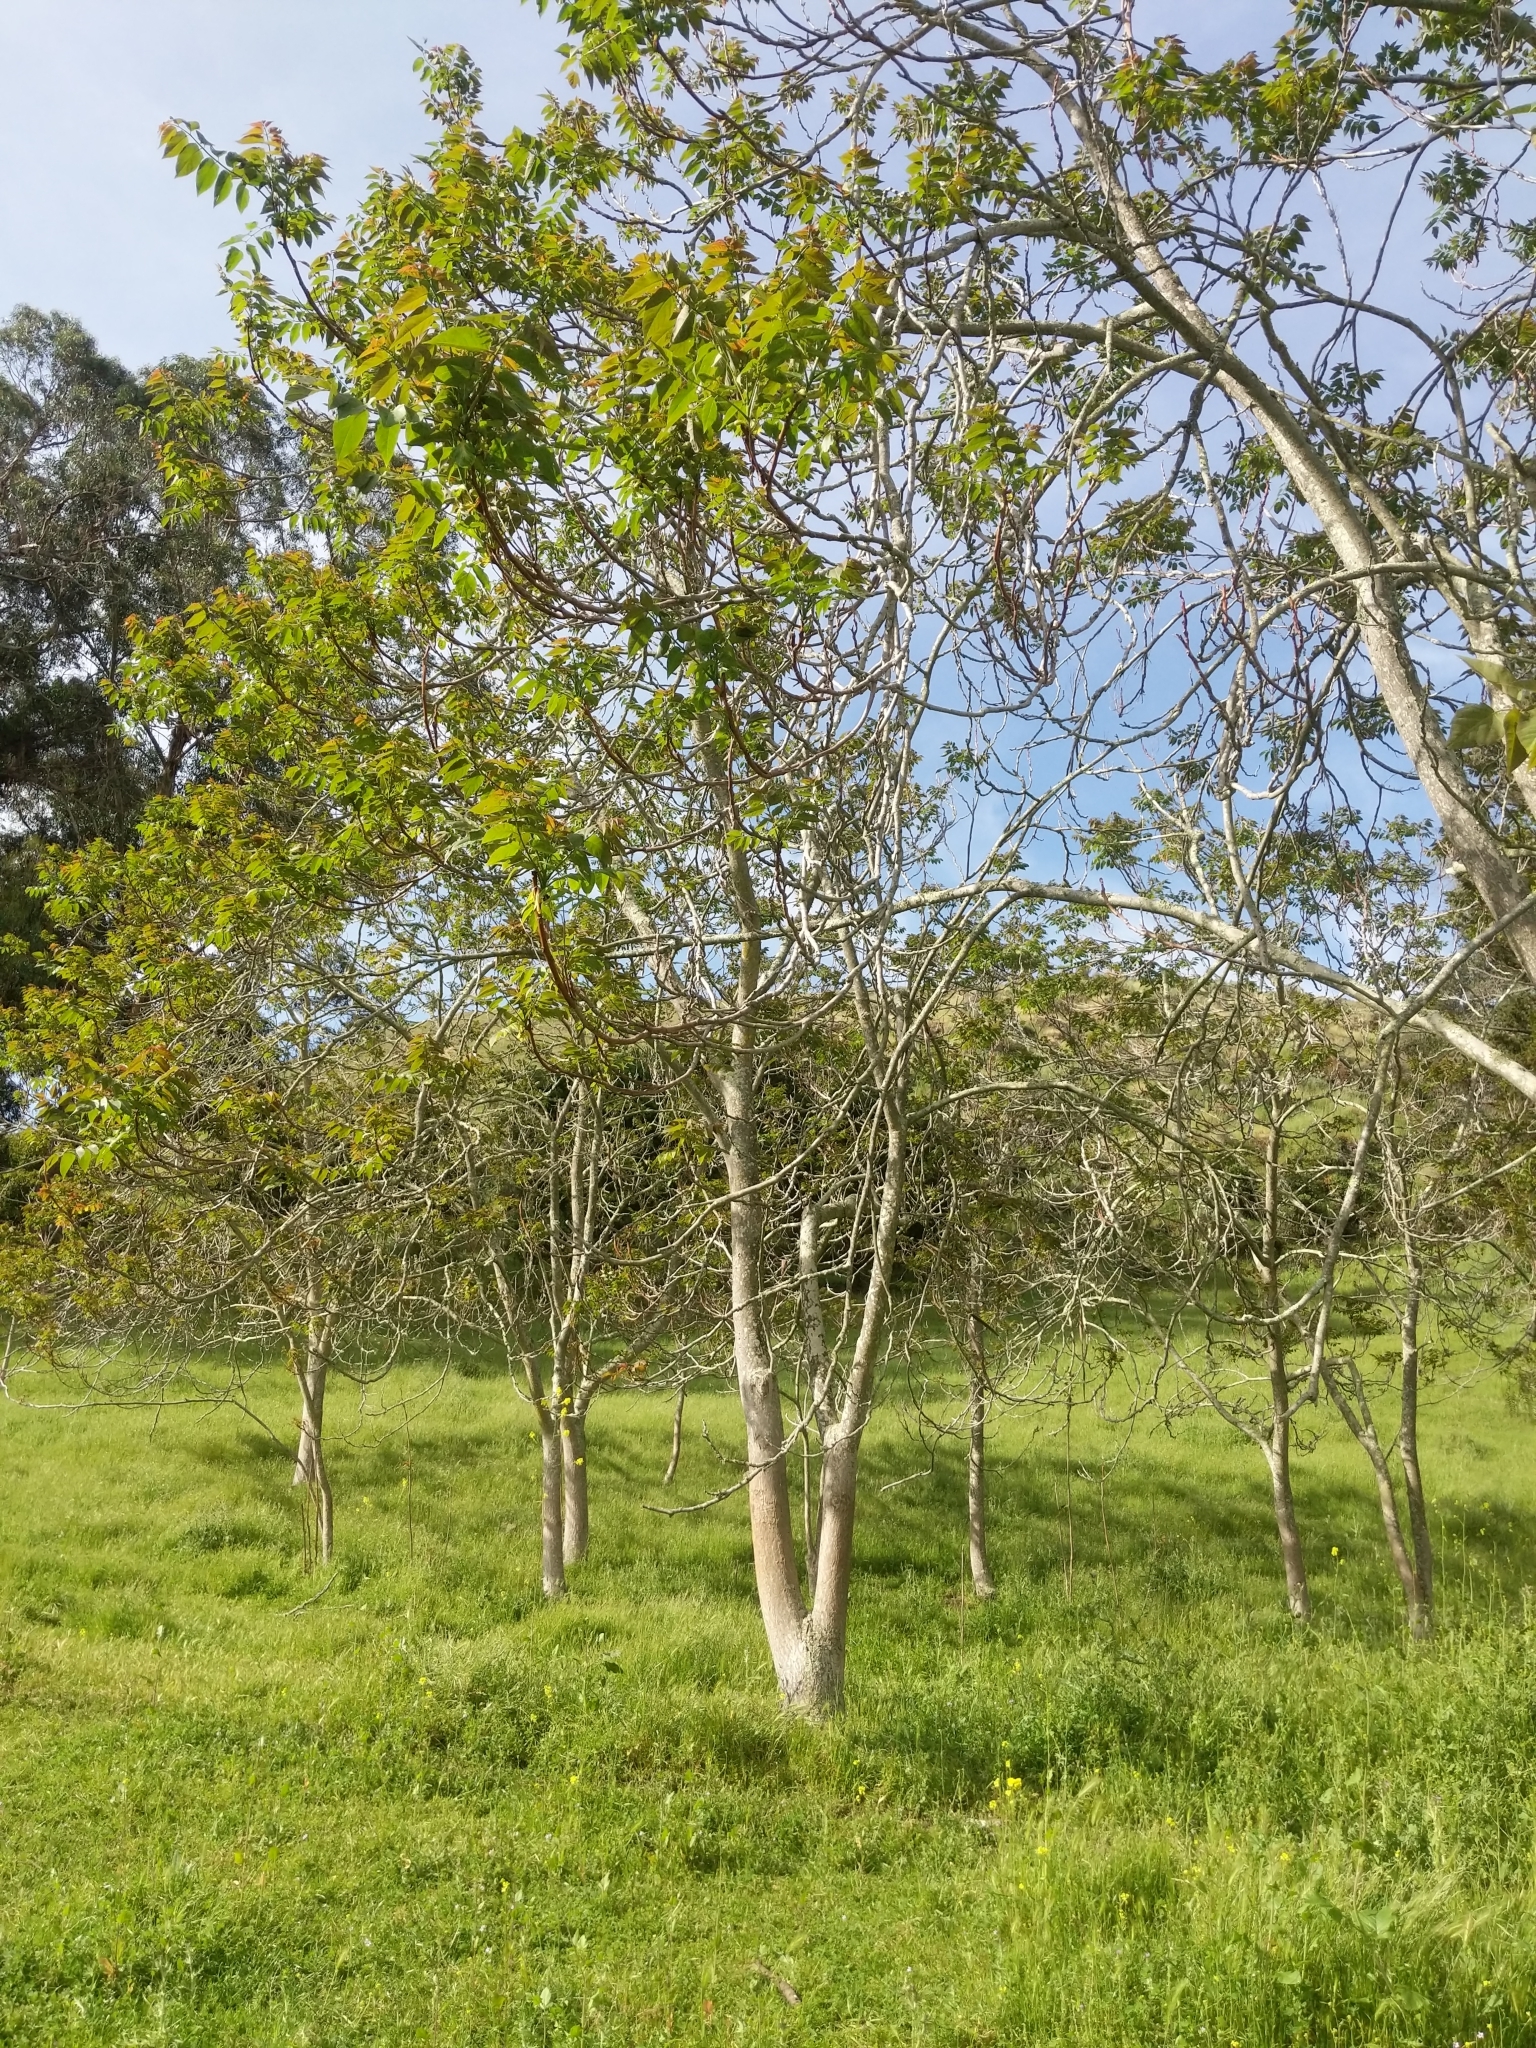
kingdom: Plantae
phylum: Tracheophyta
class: Magnoliopsida
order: Sapindales
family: Simaroubaceae
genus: Ailanthus
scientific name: Ailanthus altissima
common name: Tree-of-heaven
